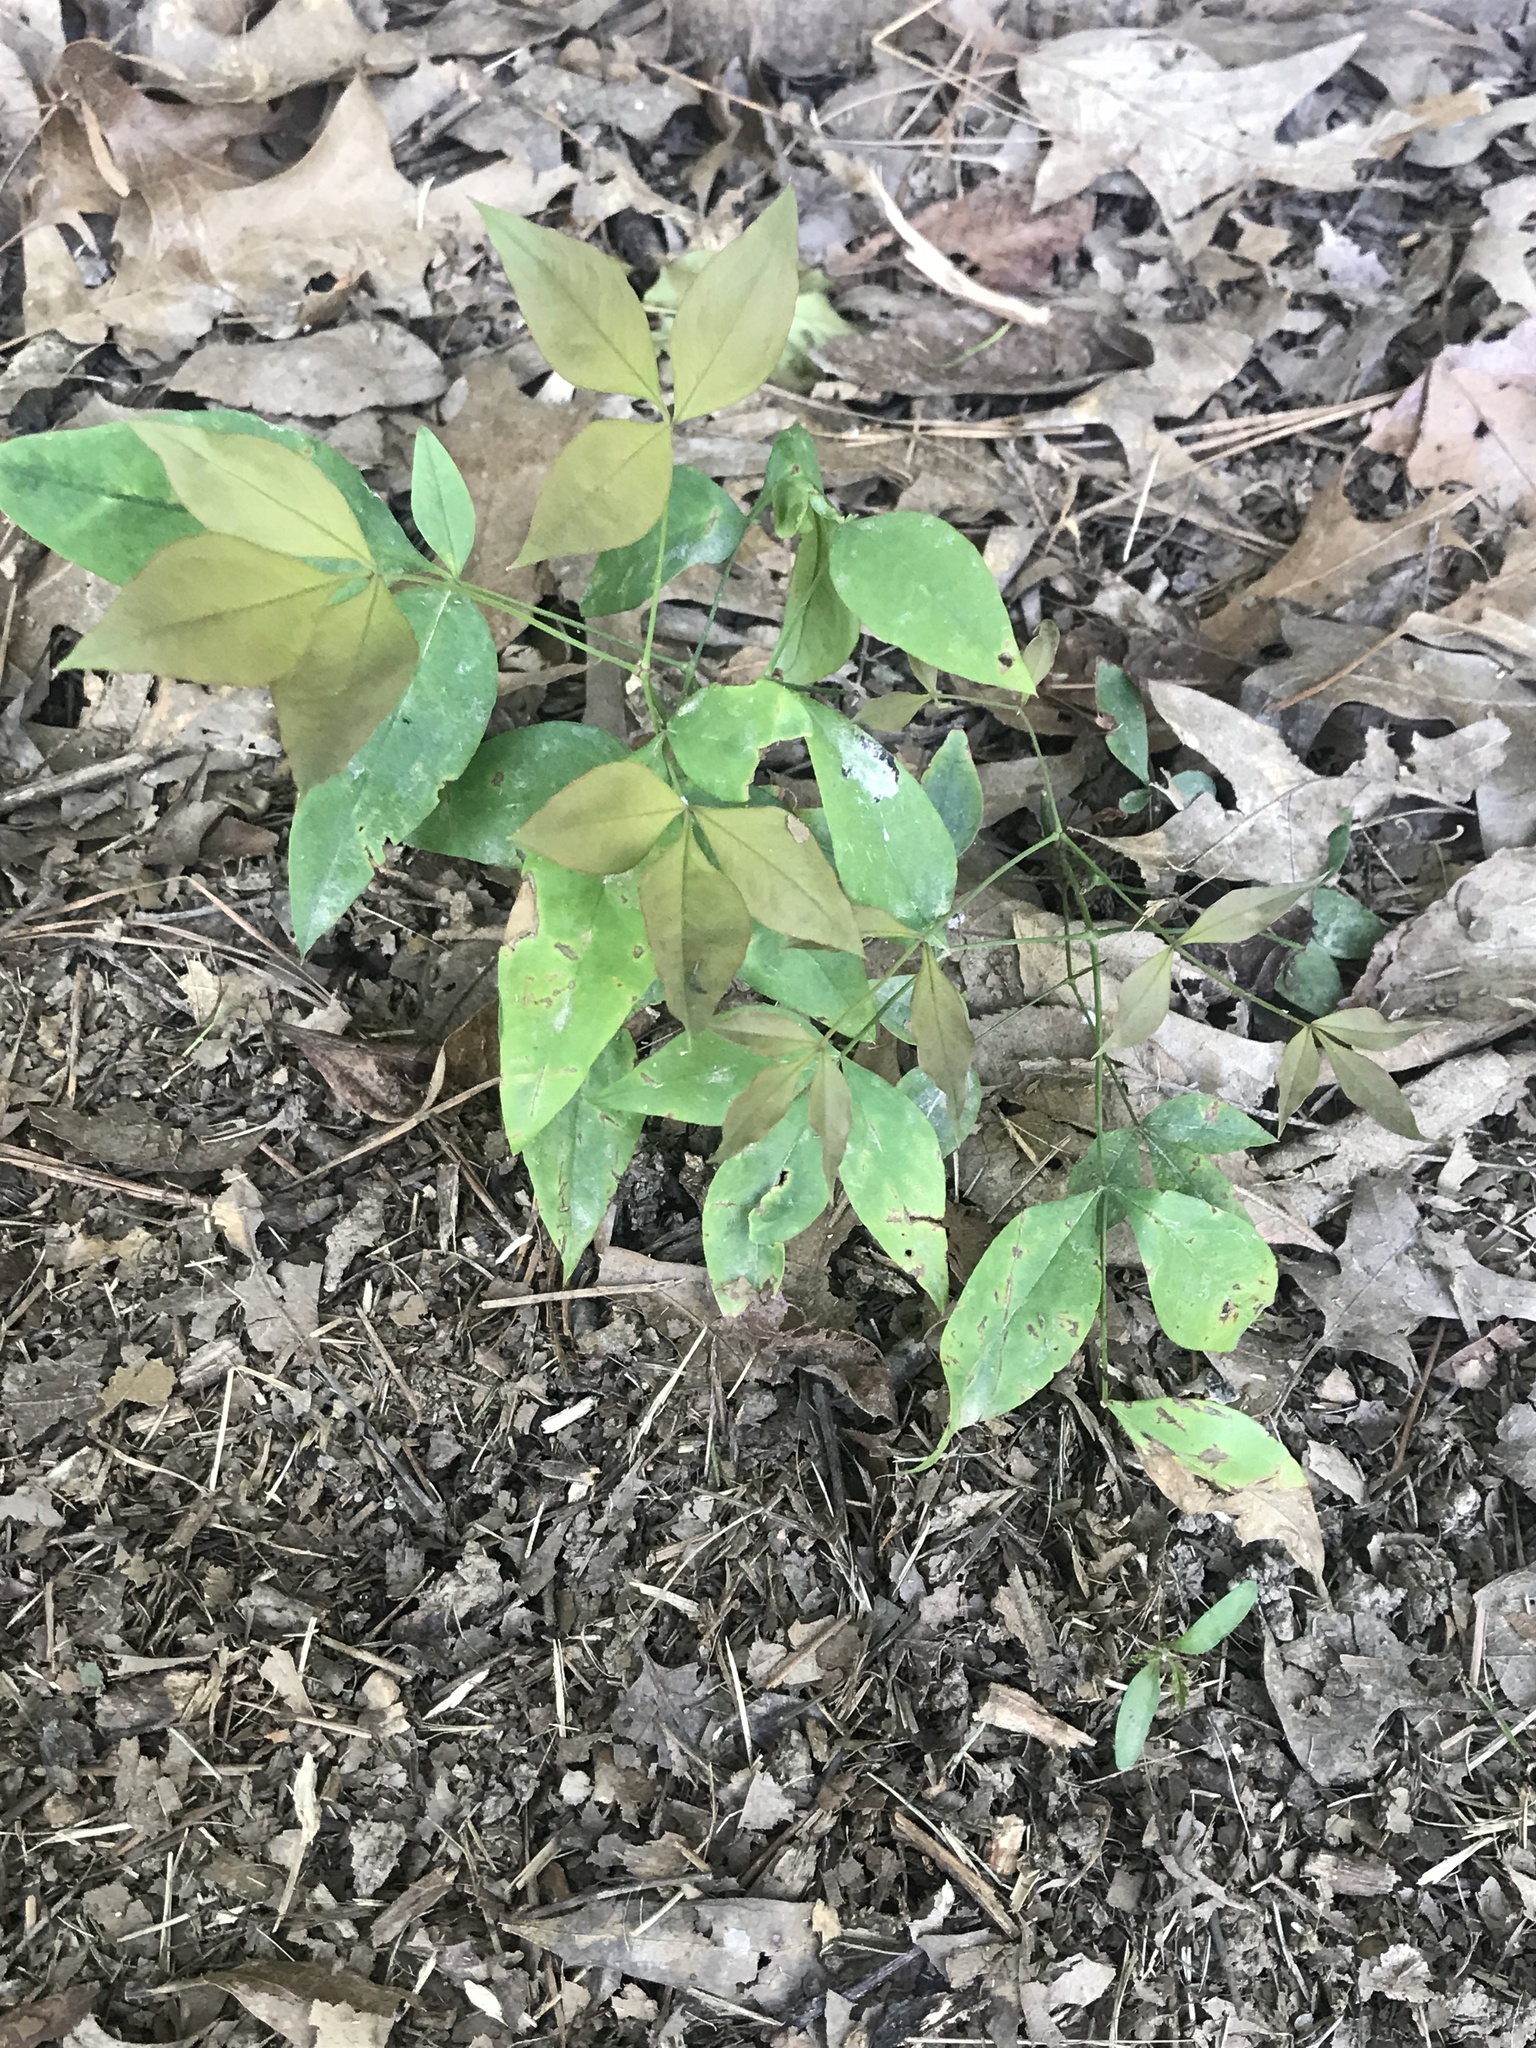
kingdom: Plantae
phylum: Tracheophyta
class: Magnoliopsida
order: Ranunculales
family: Berberidaceae
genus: Nandina
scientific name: Nandina domestica
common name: Sacred bamboo
